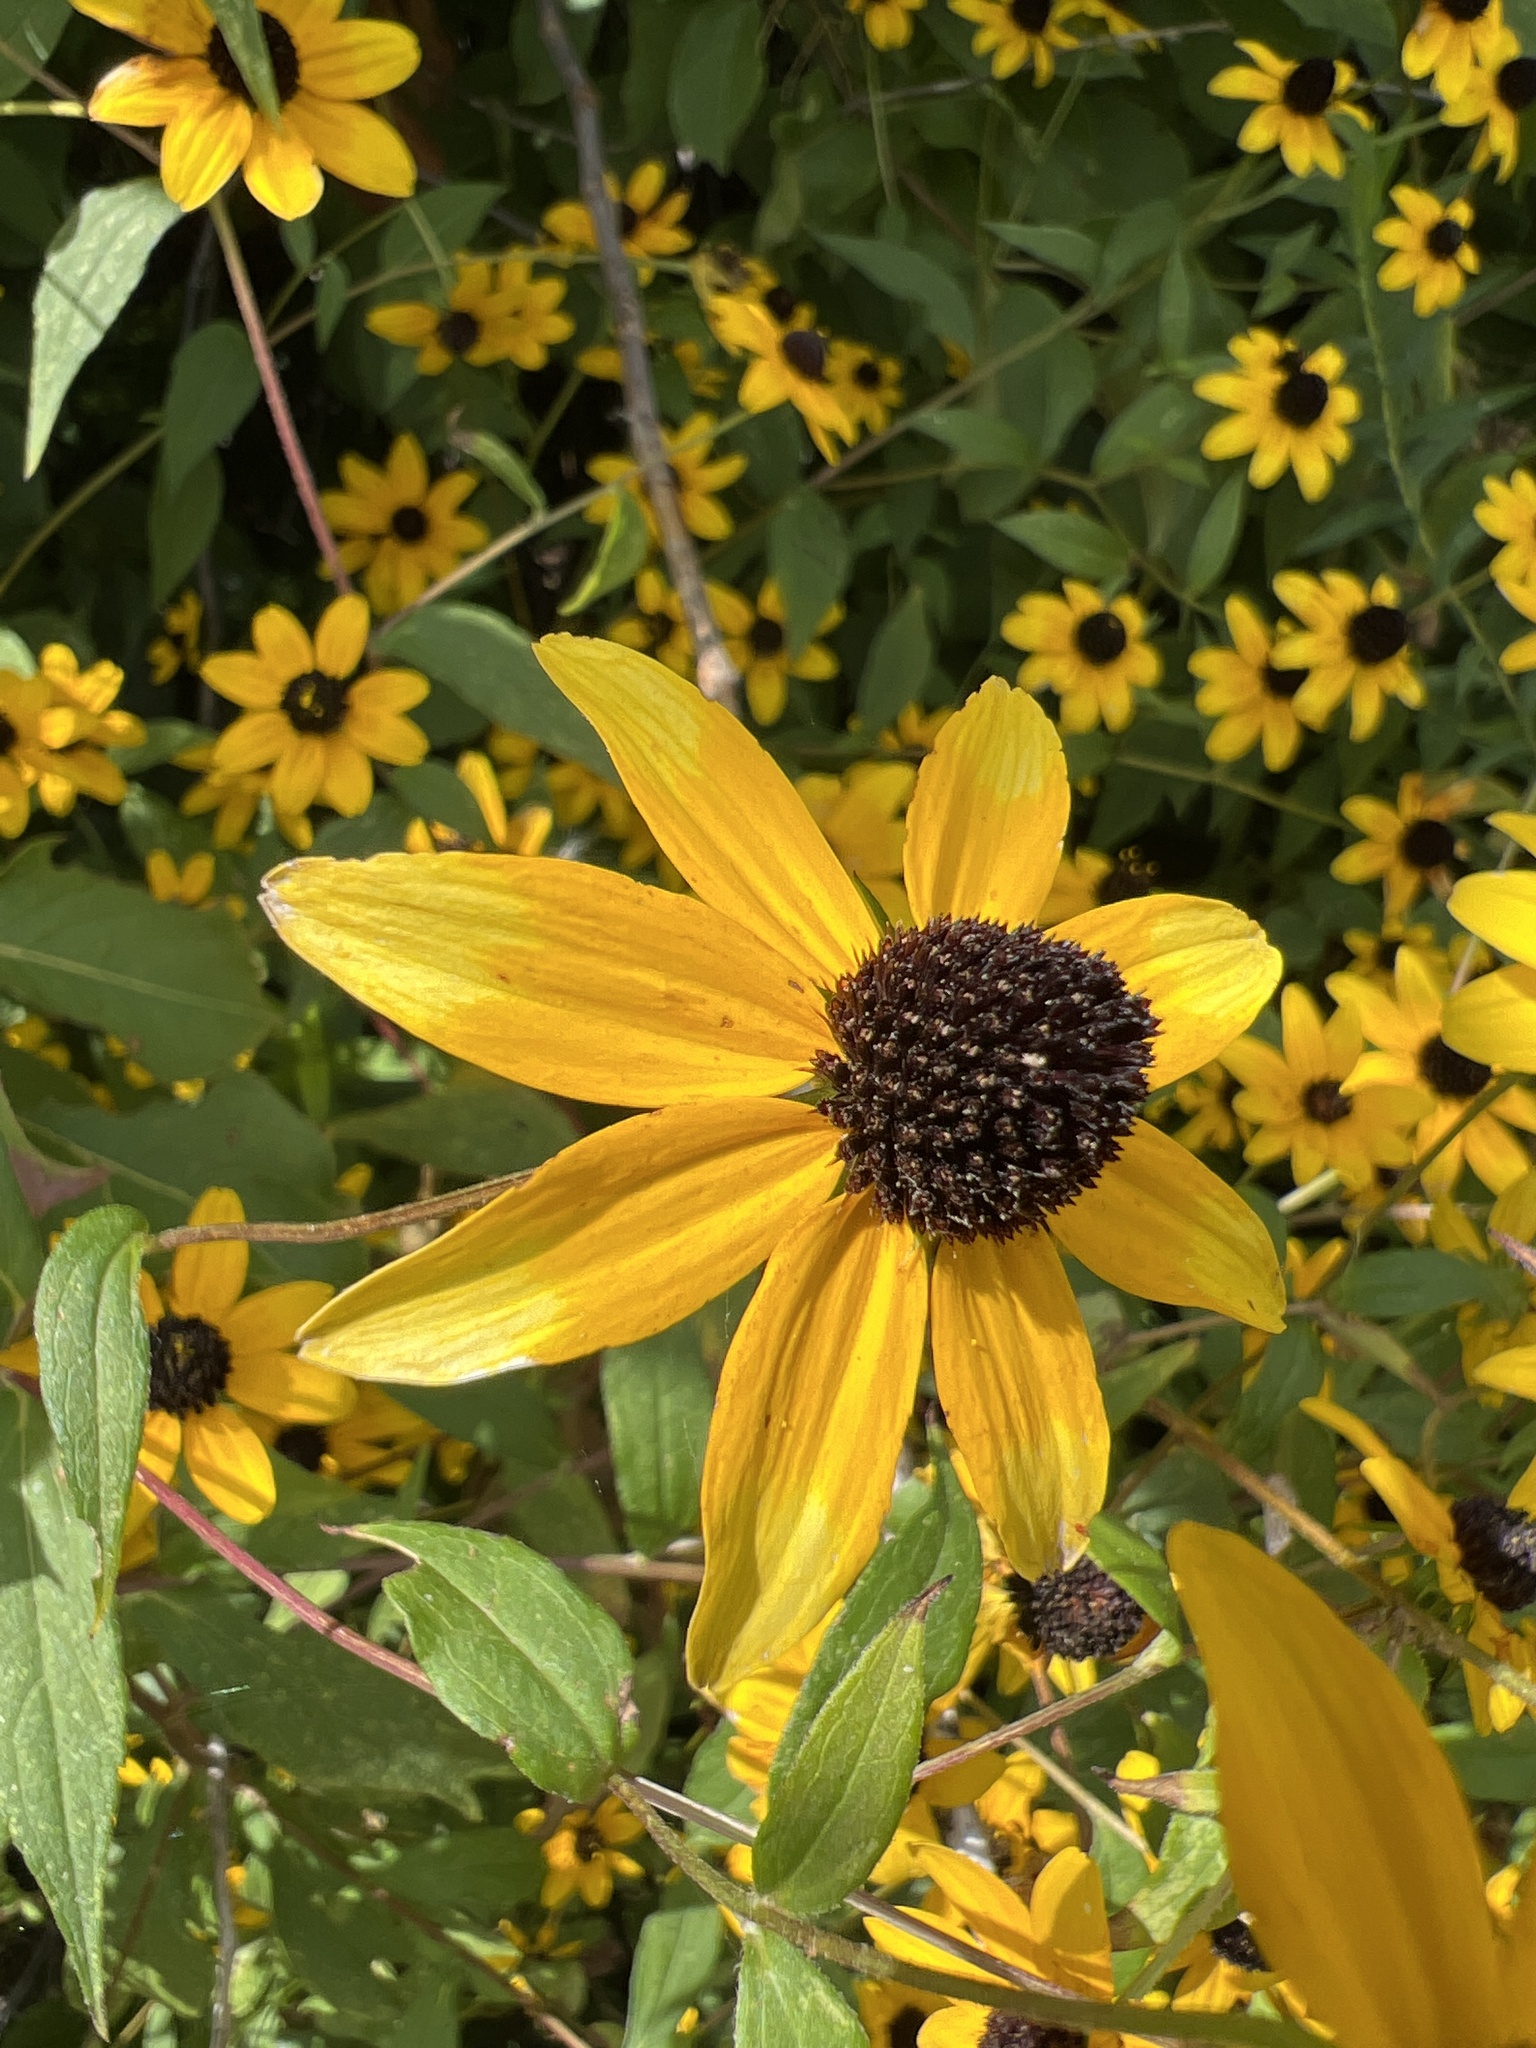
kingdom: Plantae
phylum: Tracheophyta
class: Magnoliopsida
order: Asterales
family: Asteraceae
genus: Rudbeckia
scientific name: Rudbeckia triloba
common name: Thin-leaved coneflower
